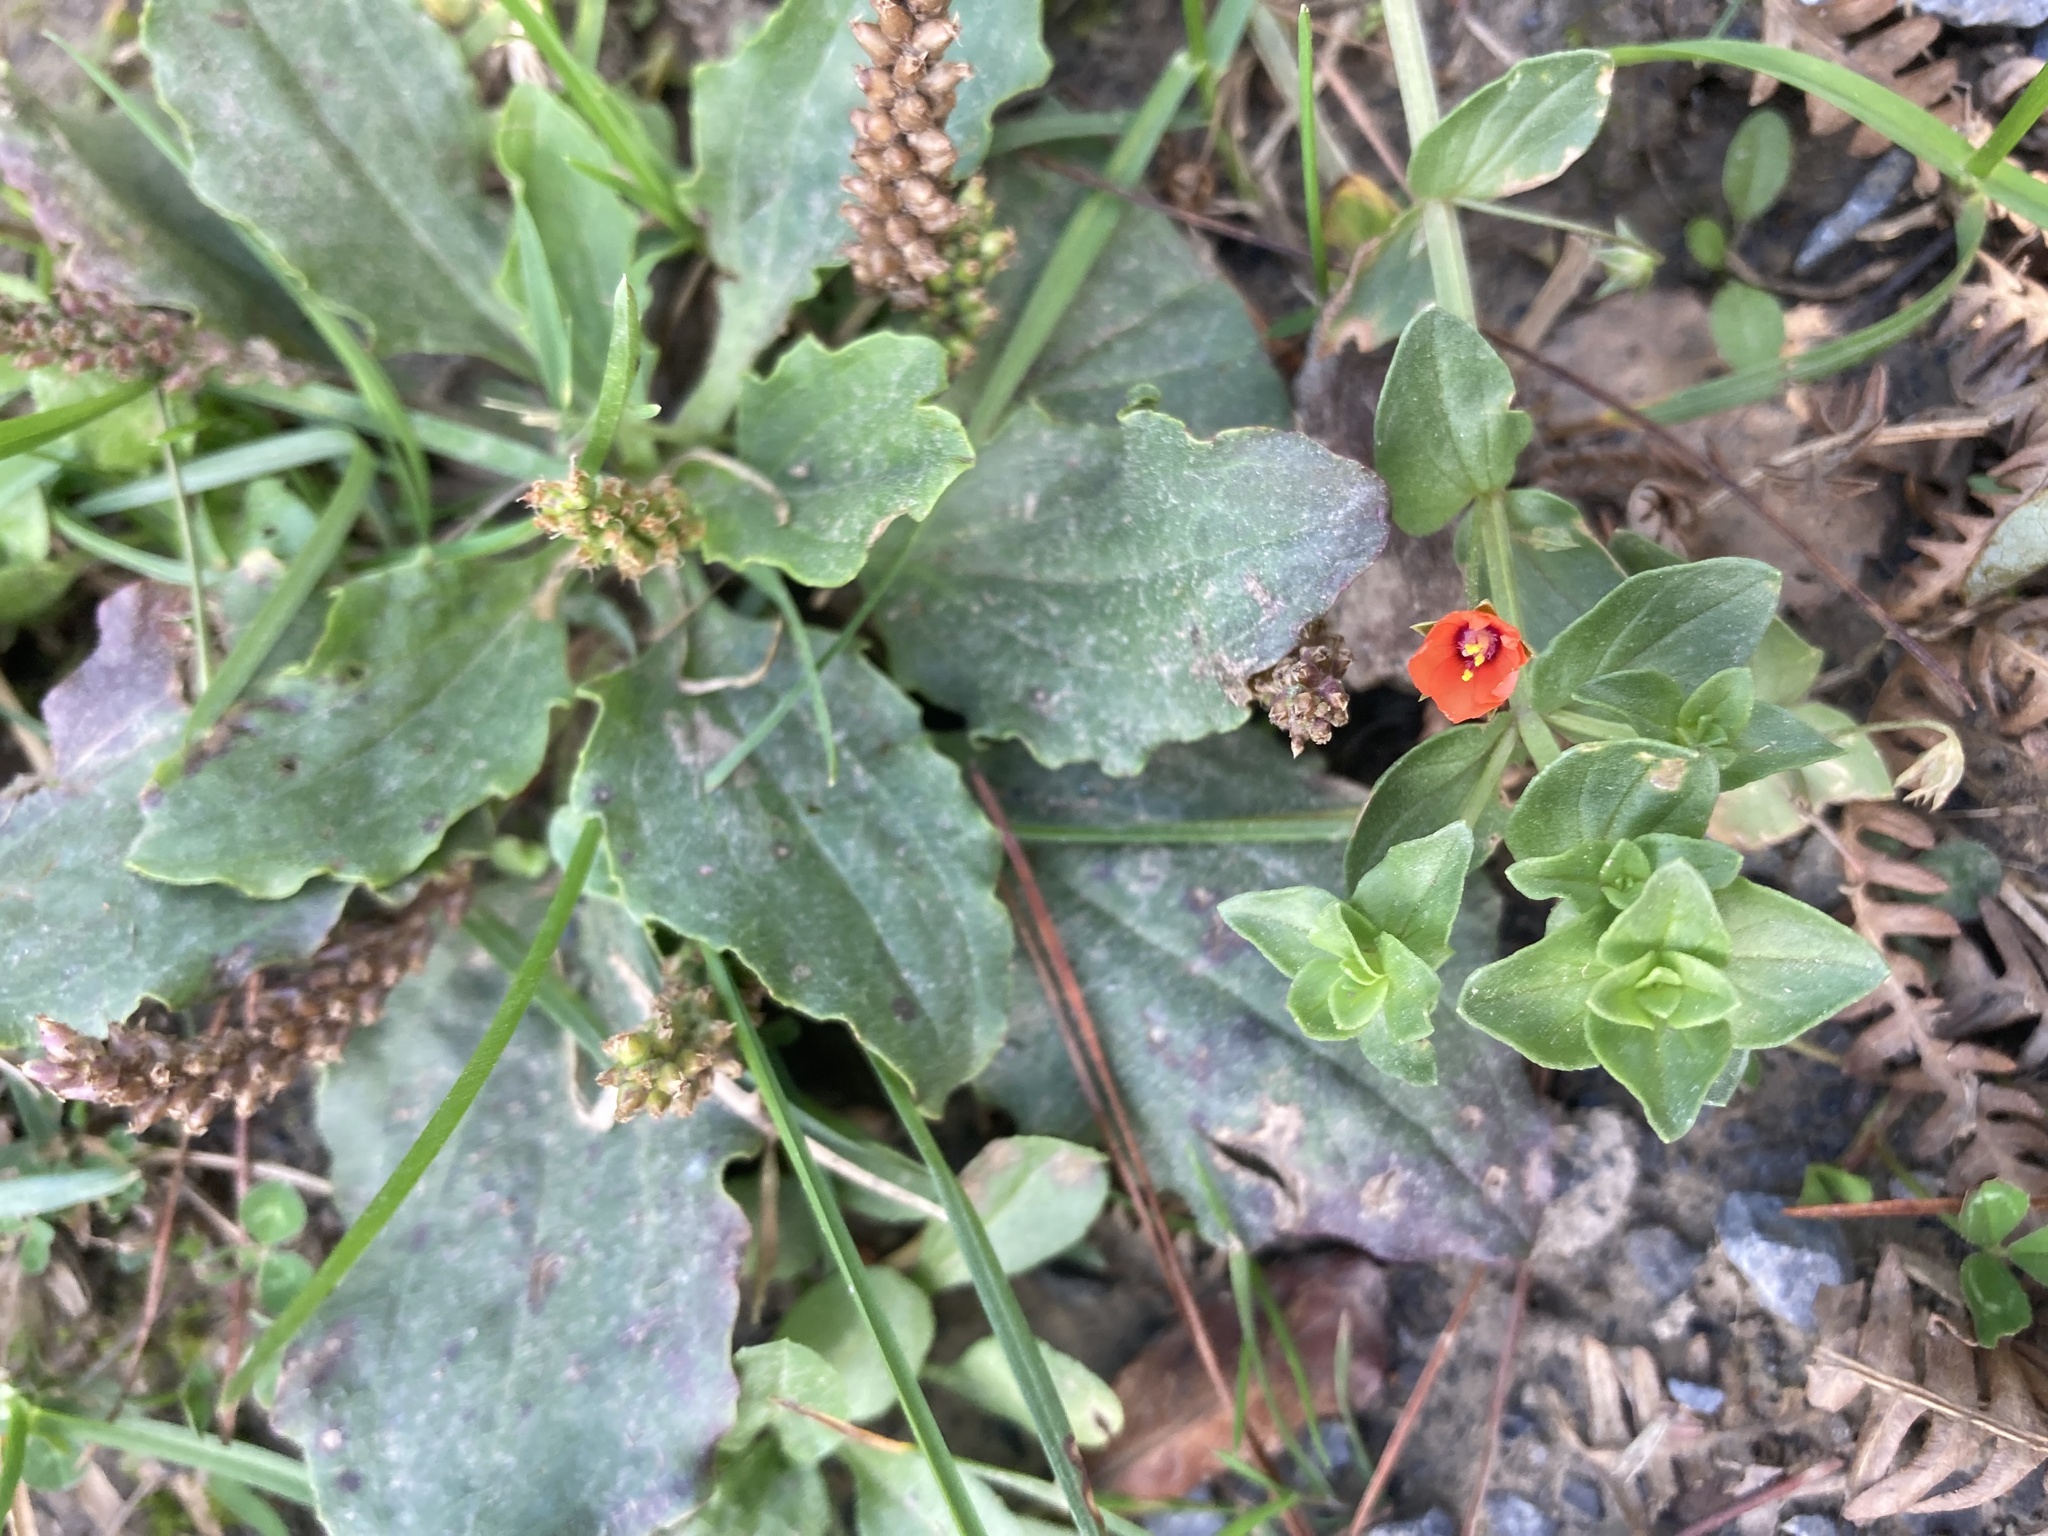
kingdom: Plantae
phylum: Tracheophyta
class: Magnoliopsida
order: Ericales
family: Primulaceae
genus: Lysimachia
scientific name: Lysimachia arvensis
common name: Scarlet pimpernel
